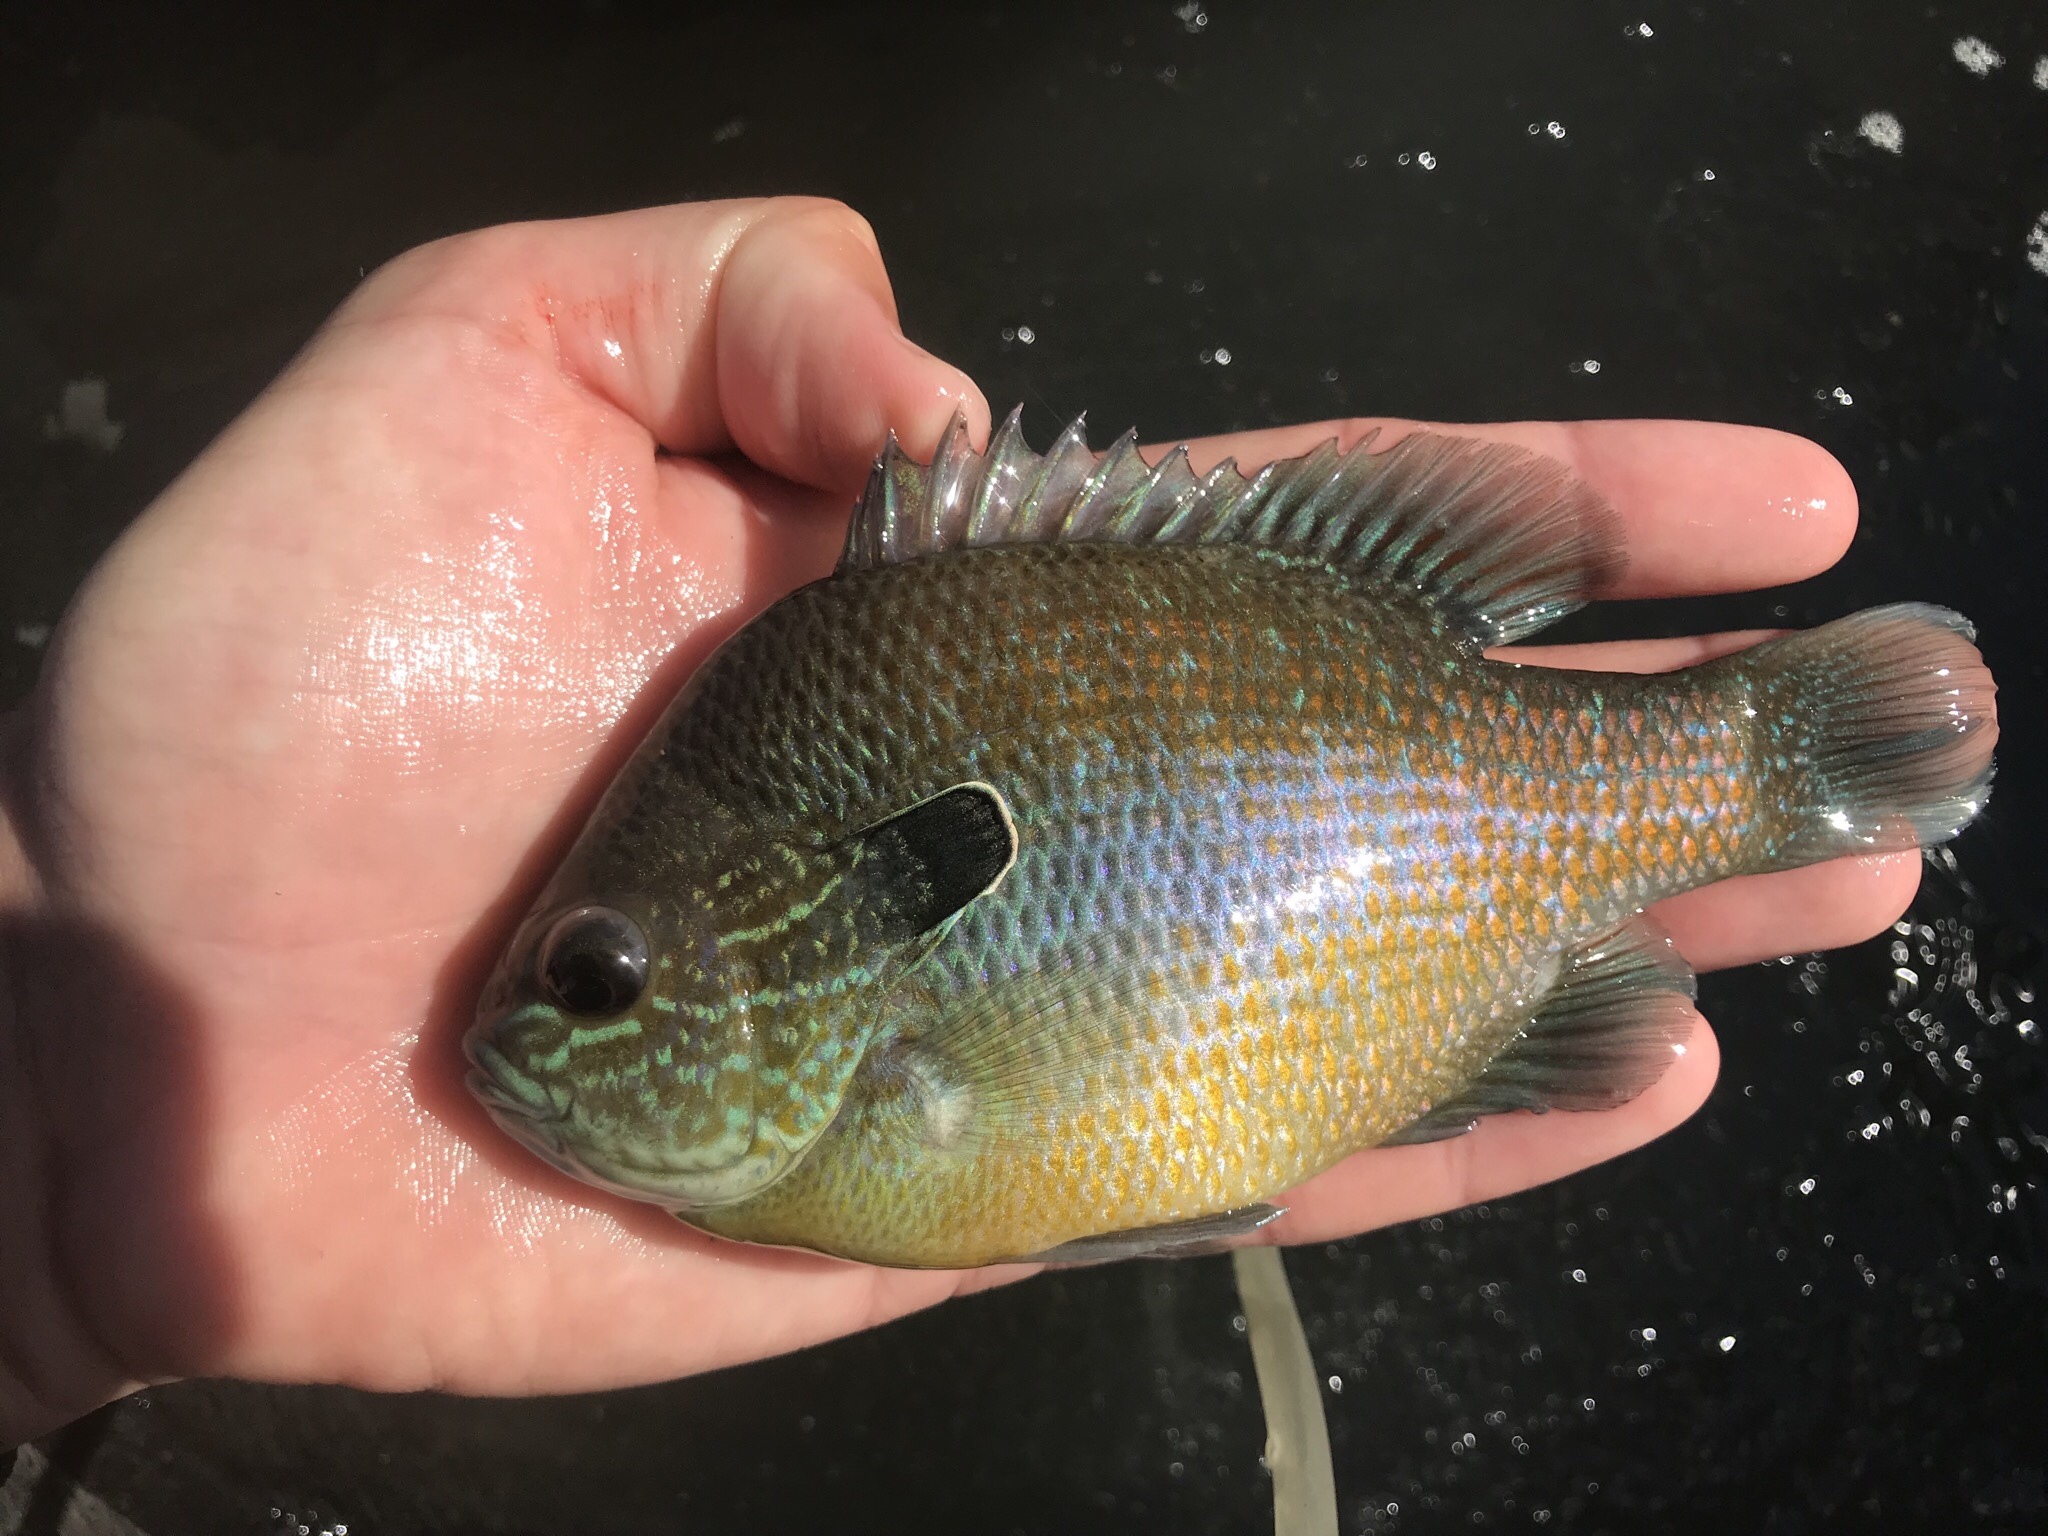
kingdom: Animalia
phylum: Chordata
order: Perciformes
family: Centrarchidae
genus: Lepomis
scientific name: Lepomis megalotis
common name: Longear sunfish
